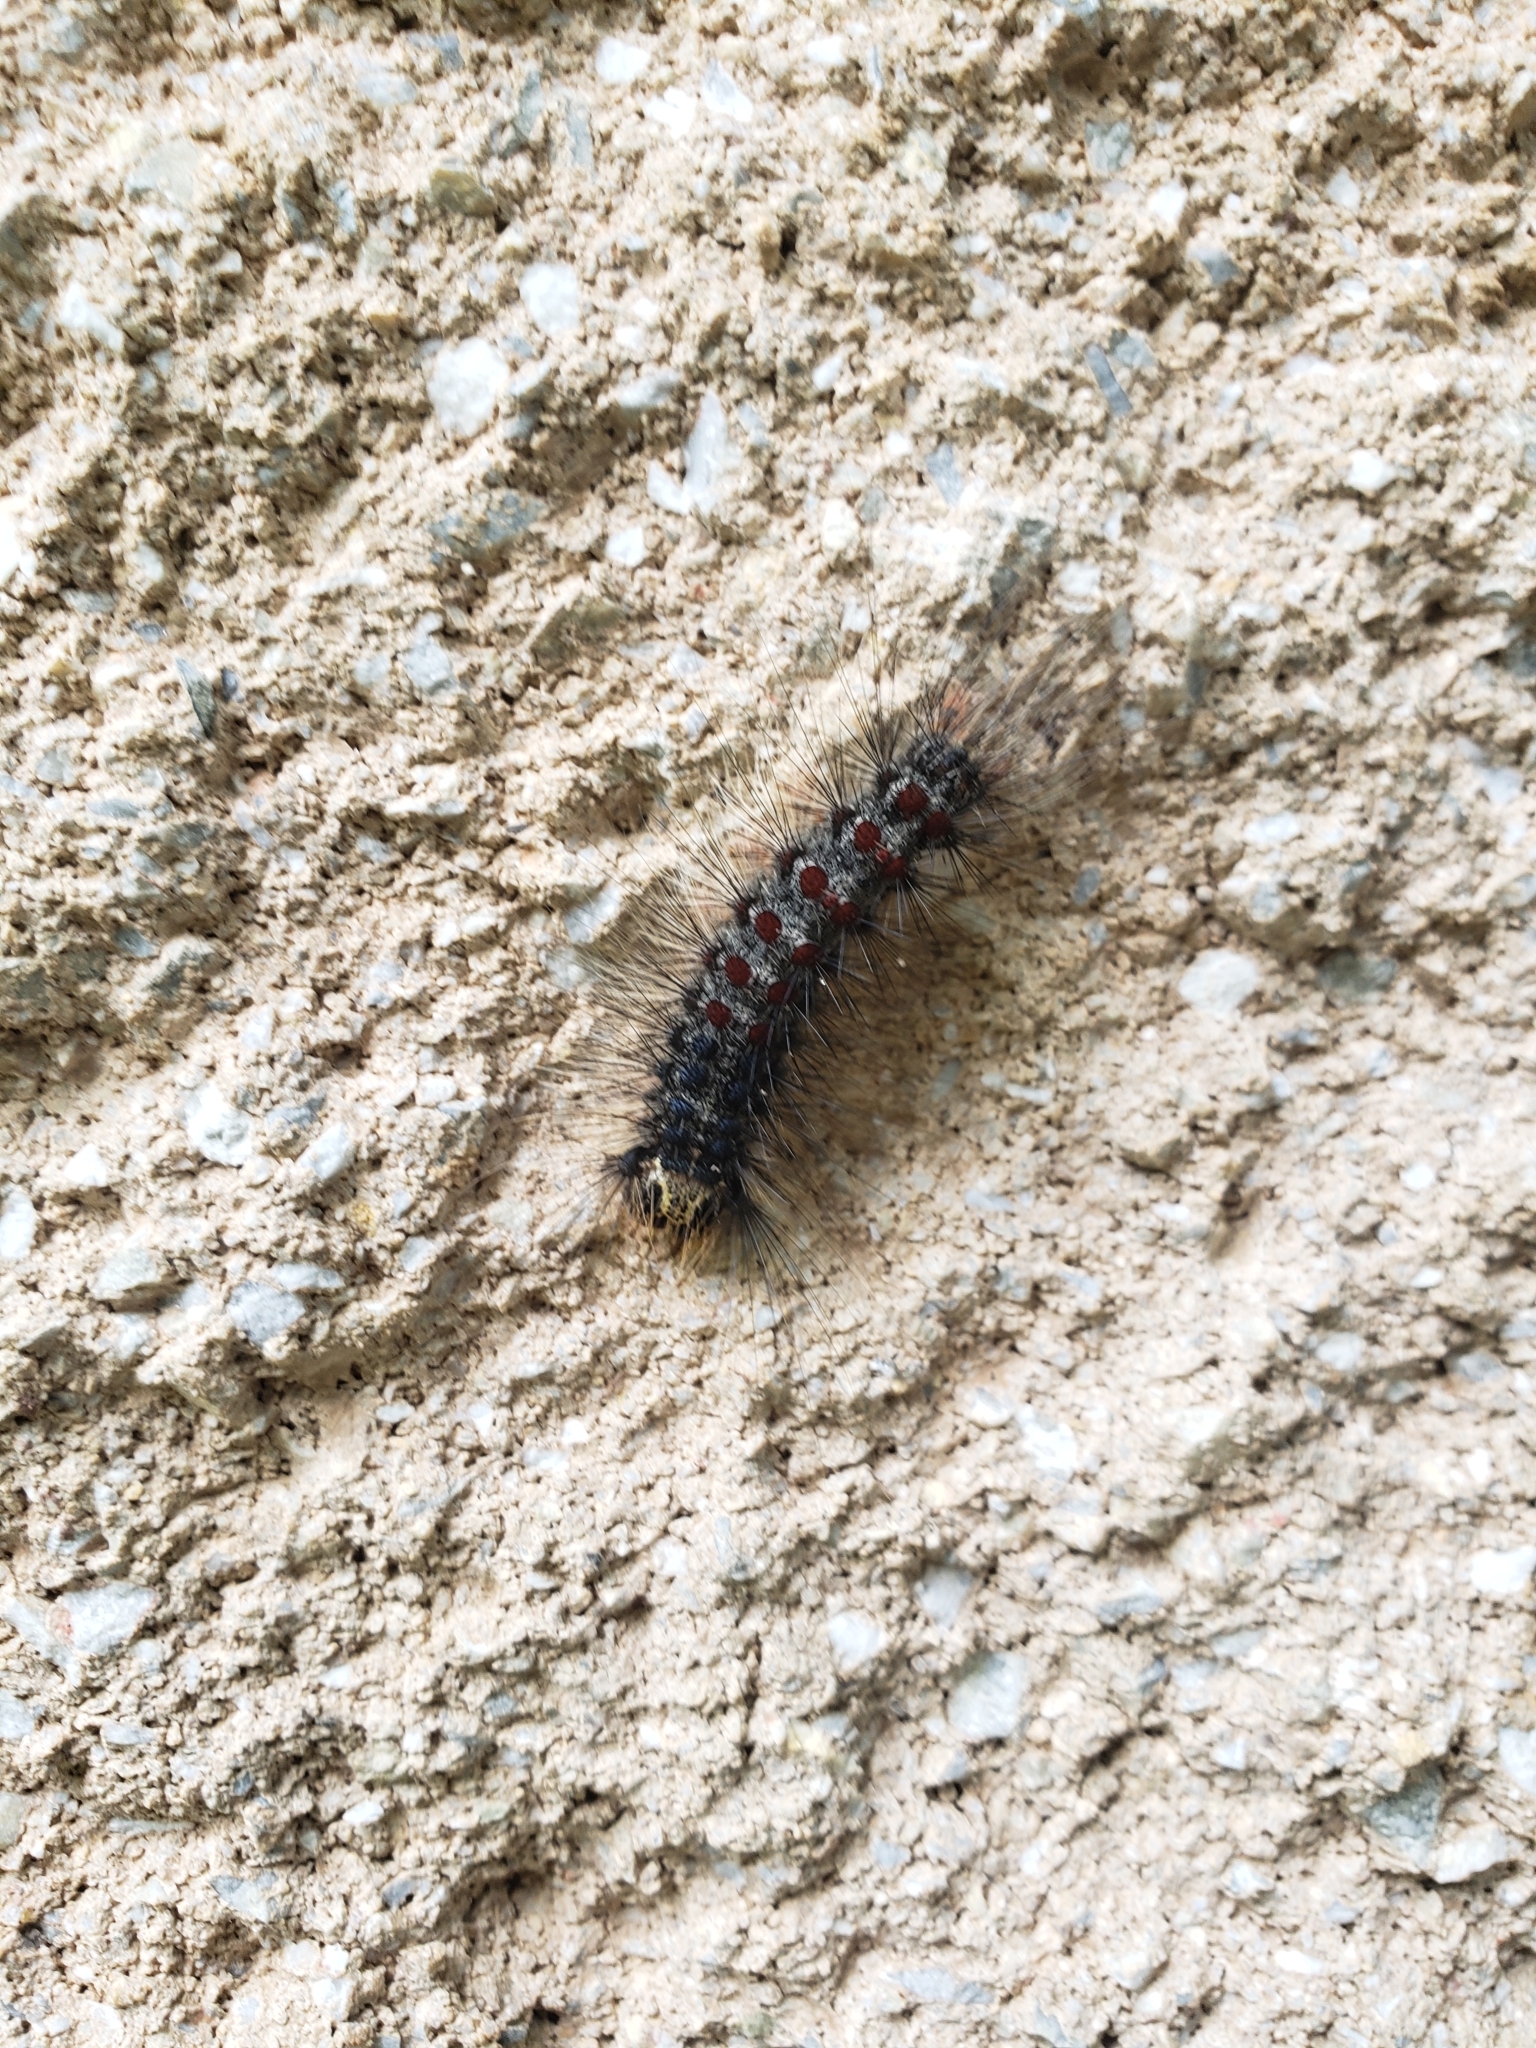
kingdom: Animalia
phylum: Arthropoda
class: Insecta
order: Lepidoptera
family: Erebidae
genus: Lymantria
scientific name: Lymantria dispar
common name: Gypsy moth
